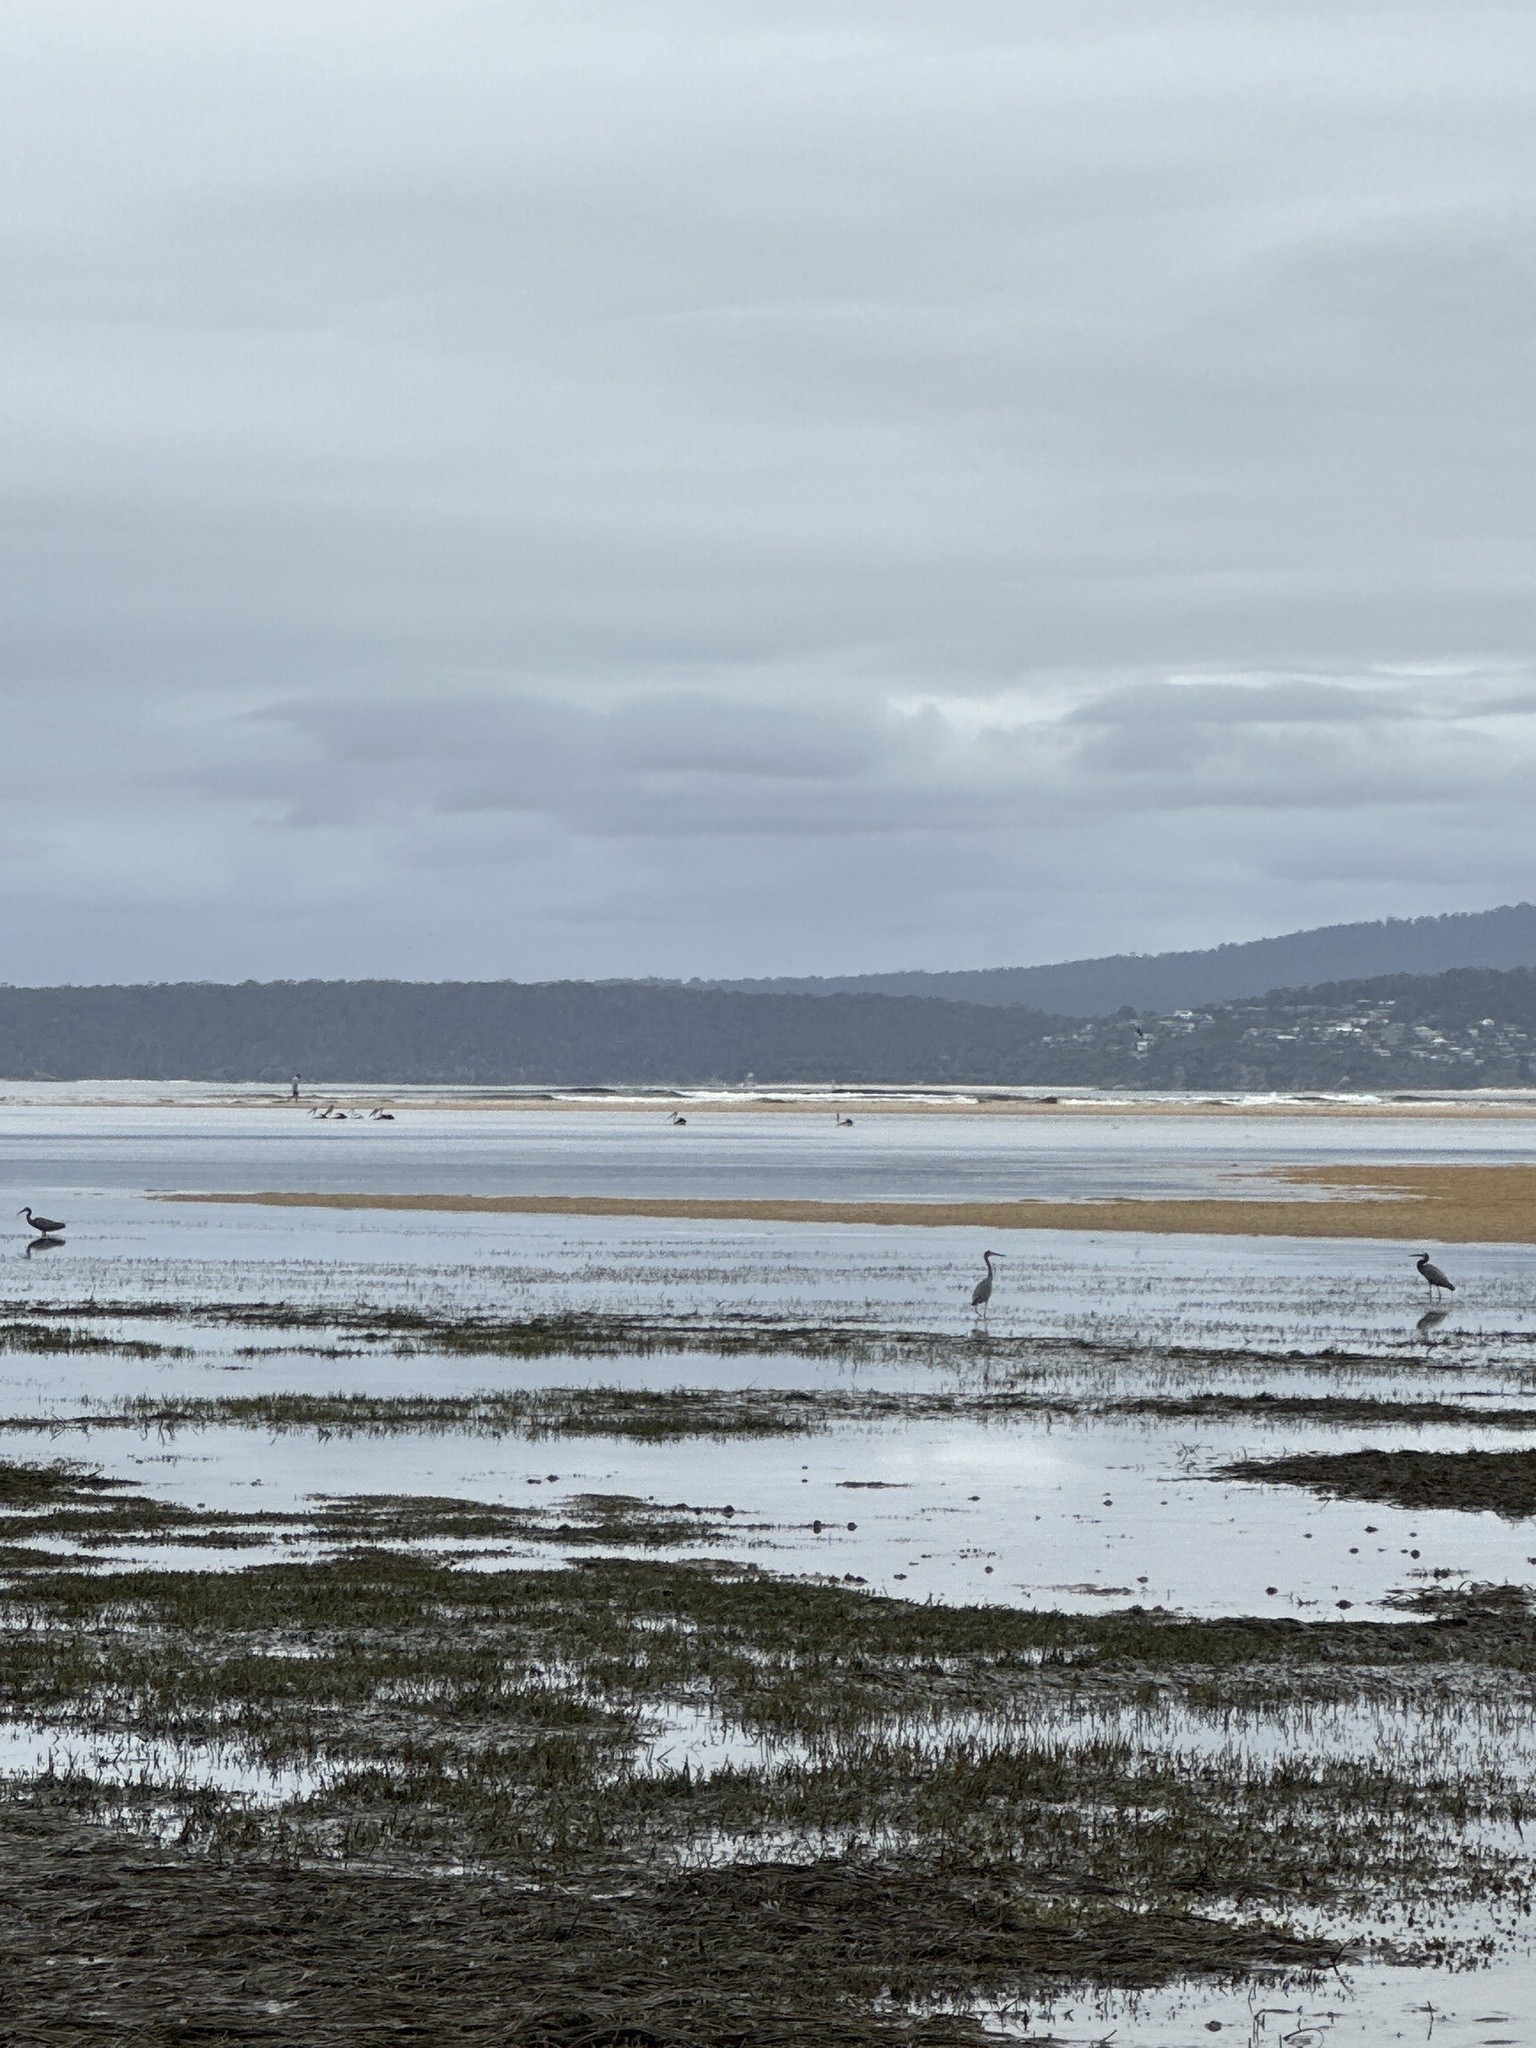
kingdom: Animalia
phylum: Chordata
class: Aves
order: Pelecaniformes
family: Ardeidae
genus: Egretta
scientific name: Egretta novaehollandiae
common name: White-faced heron
